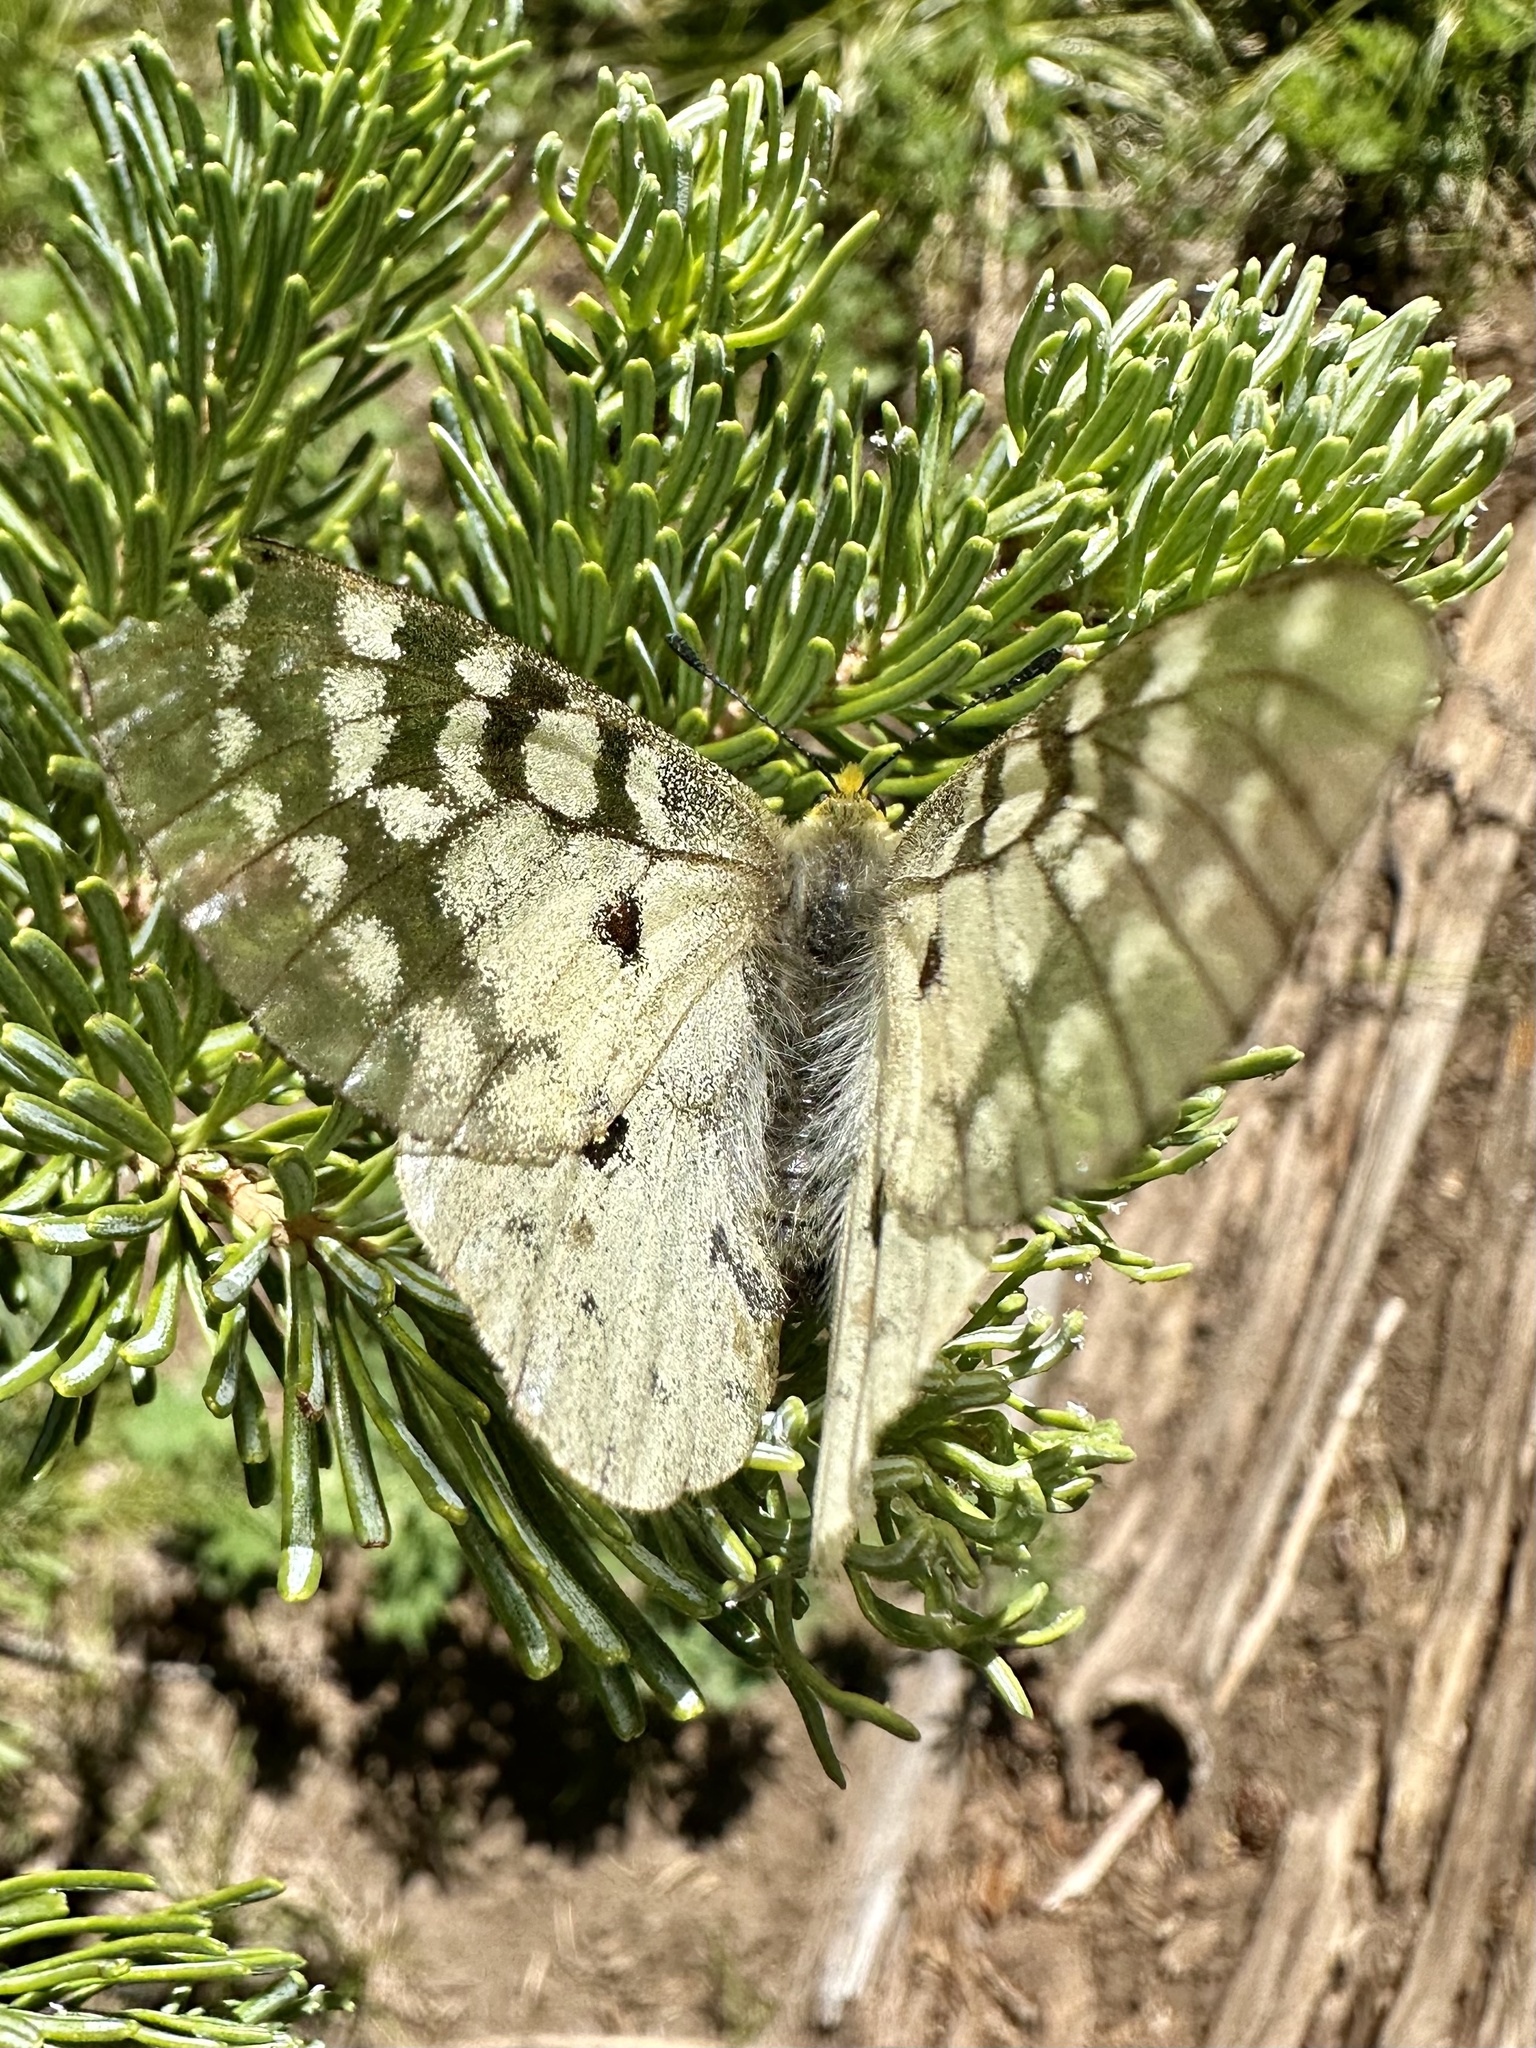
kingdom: Animalia
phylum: Arthropoda
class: Insecta
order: Lepidoptera
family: Papilionidae
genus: Parnassius
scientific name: Parnassius clodius
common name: American apollo
